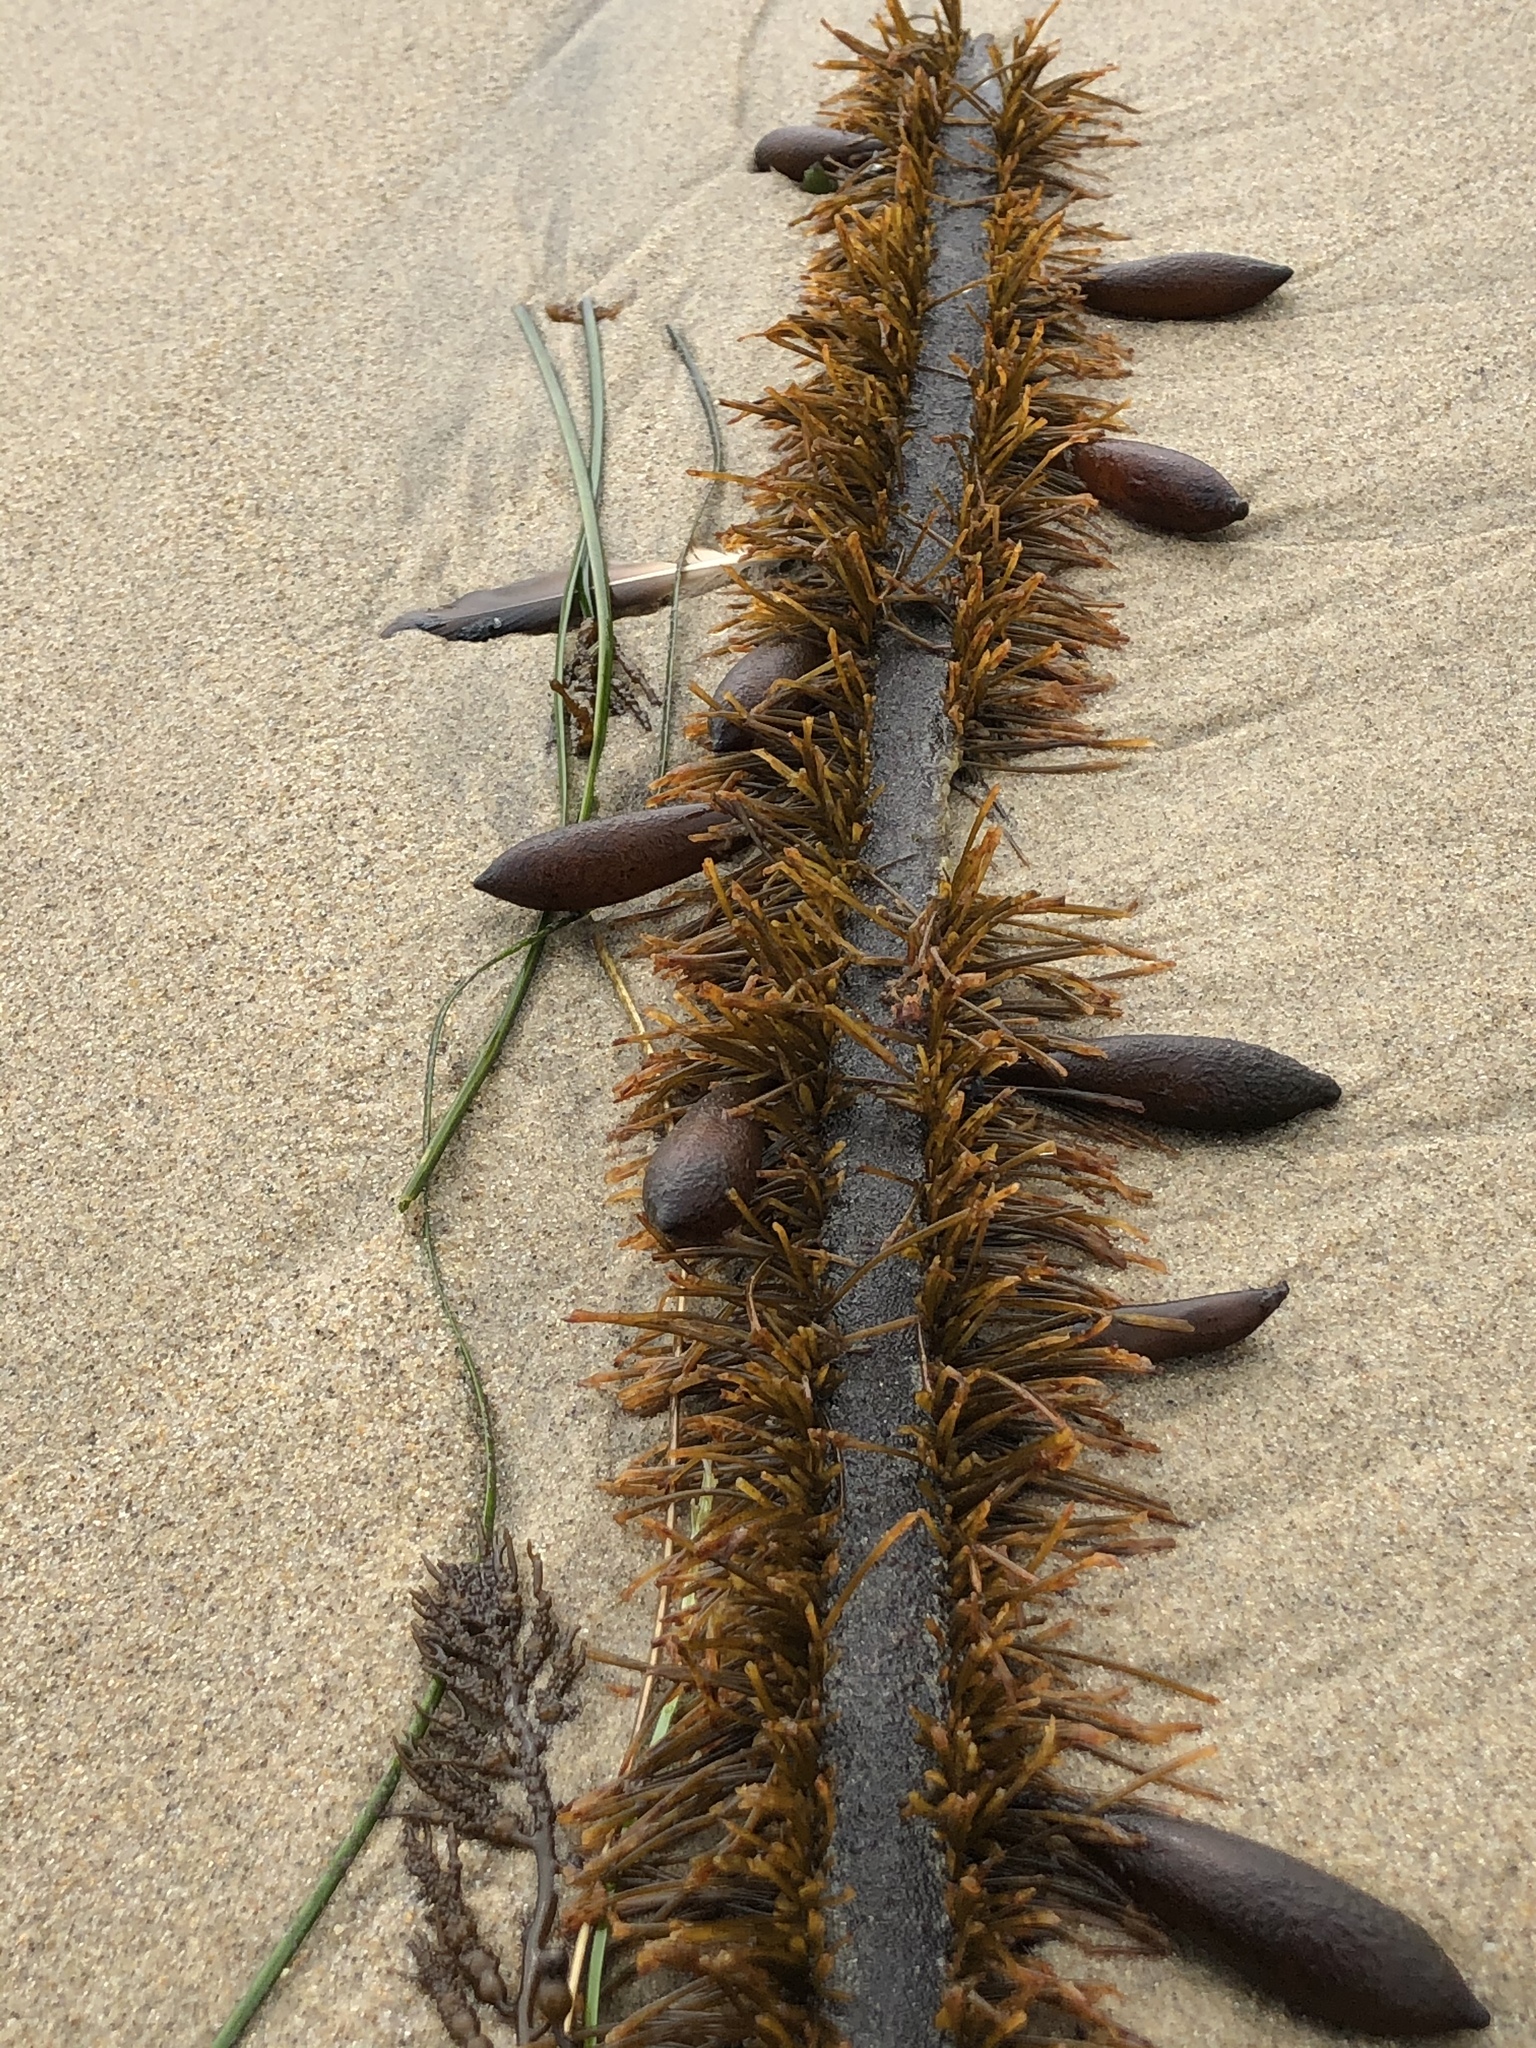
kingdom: Chromista
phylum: Ochrophyta
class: Phaeophyceae
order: Laminariales
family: Lessoniaceae
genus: Egregia
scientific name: Egregia menziesii
